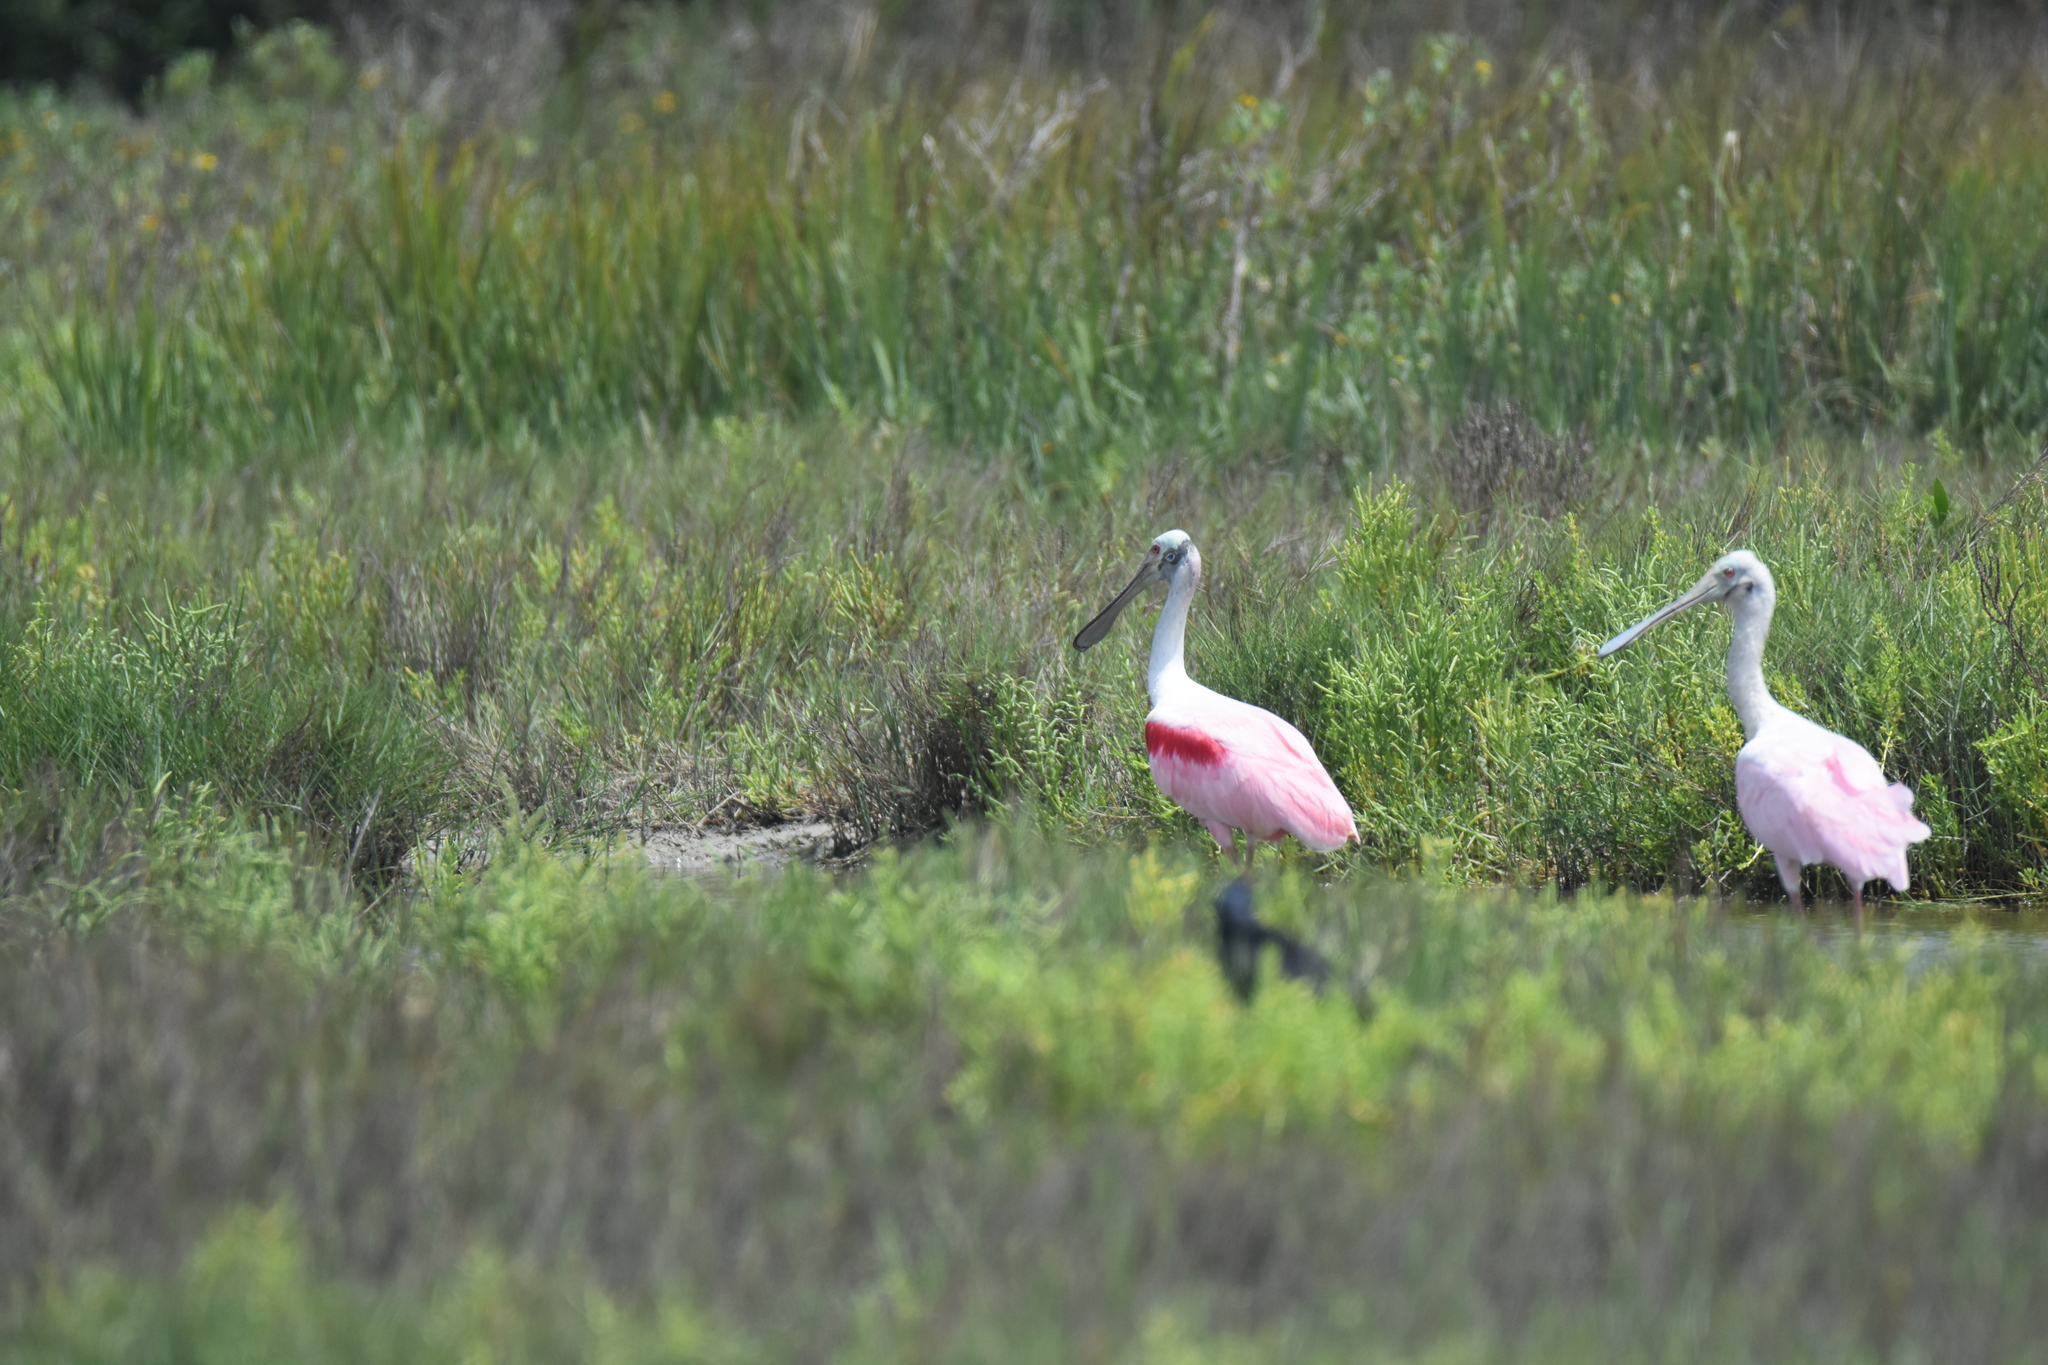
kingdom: Animalia
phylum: Chordata
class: Aves
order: Pelecaniformes
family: Threskiornithidae
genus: Platalea
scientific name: Platalea ajaja
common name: Roseate spoonbill
